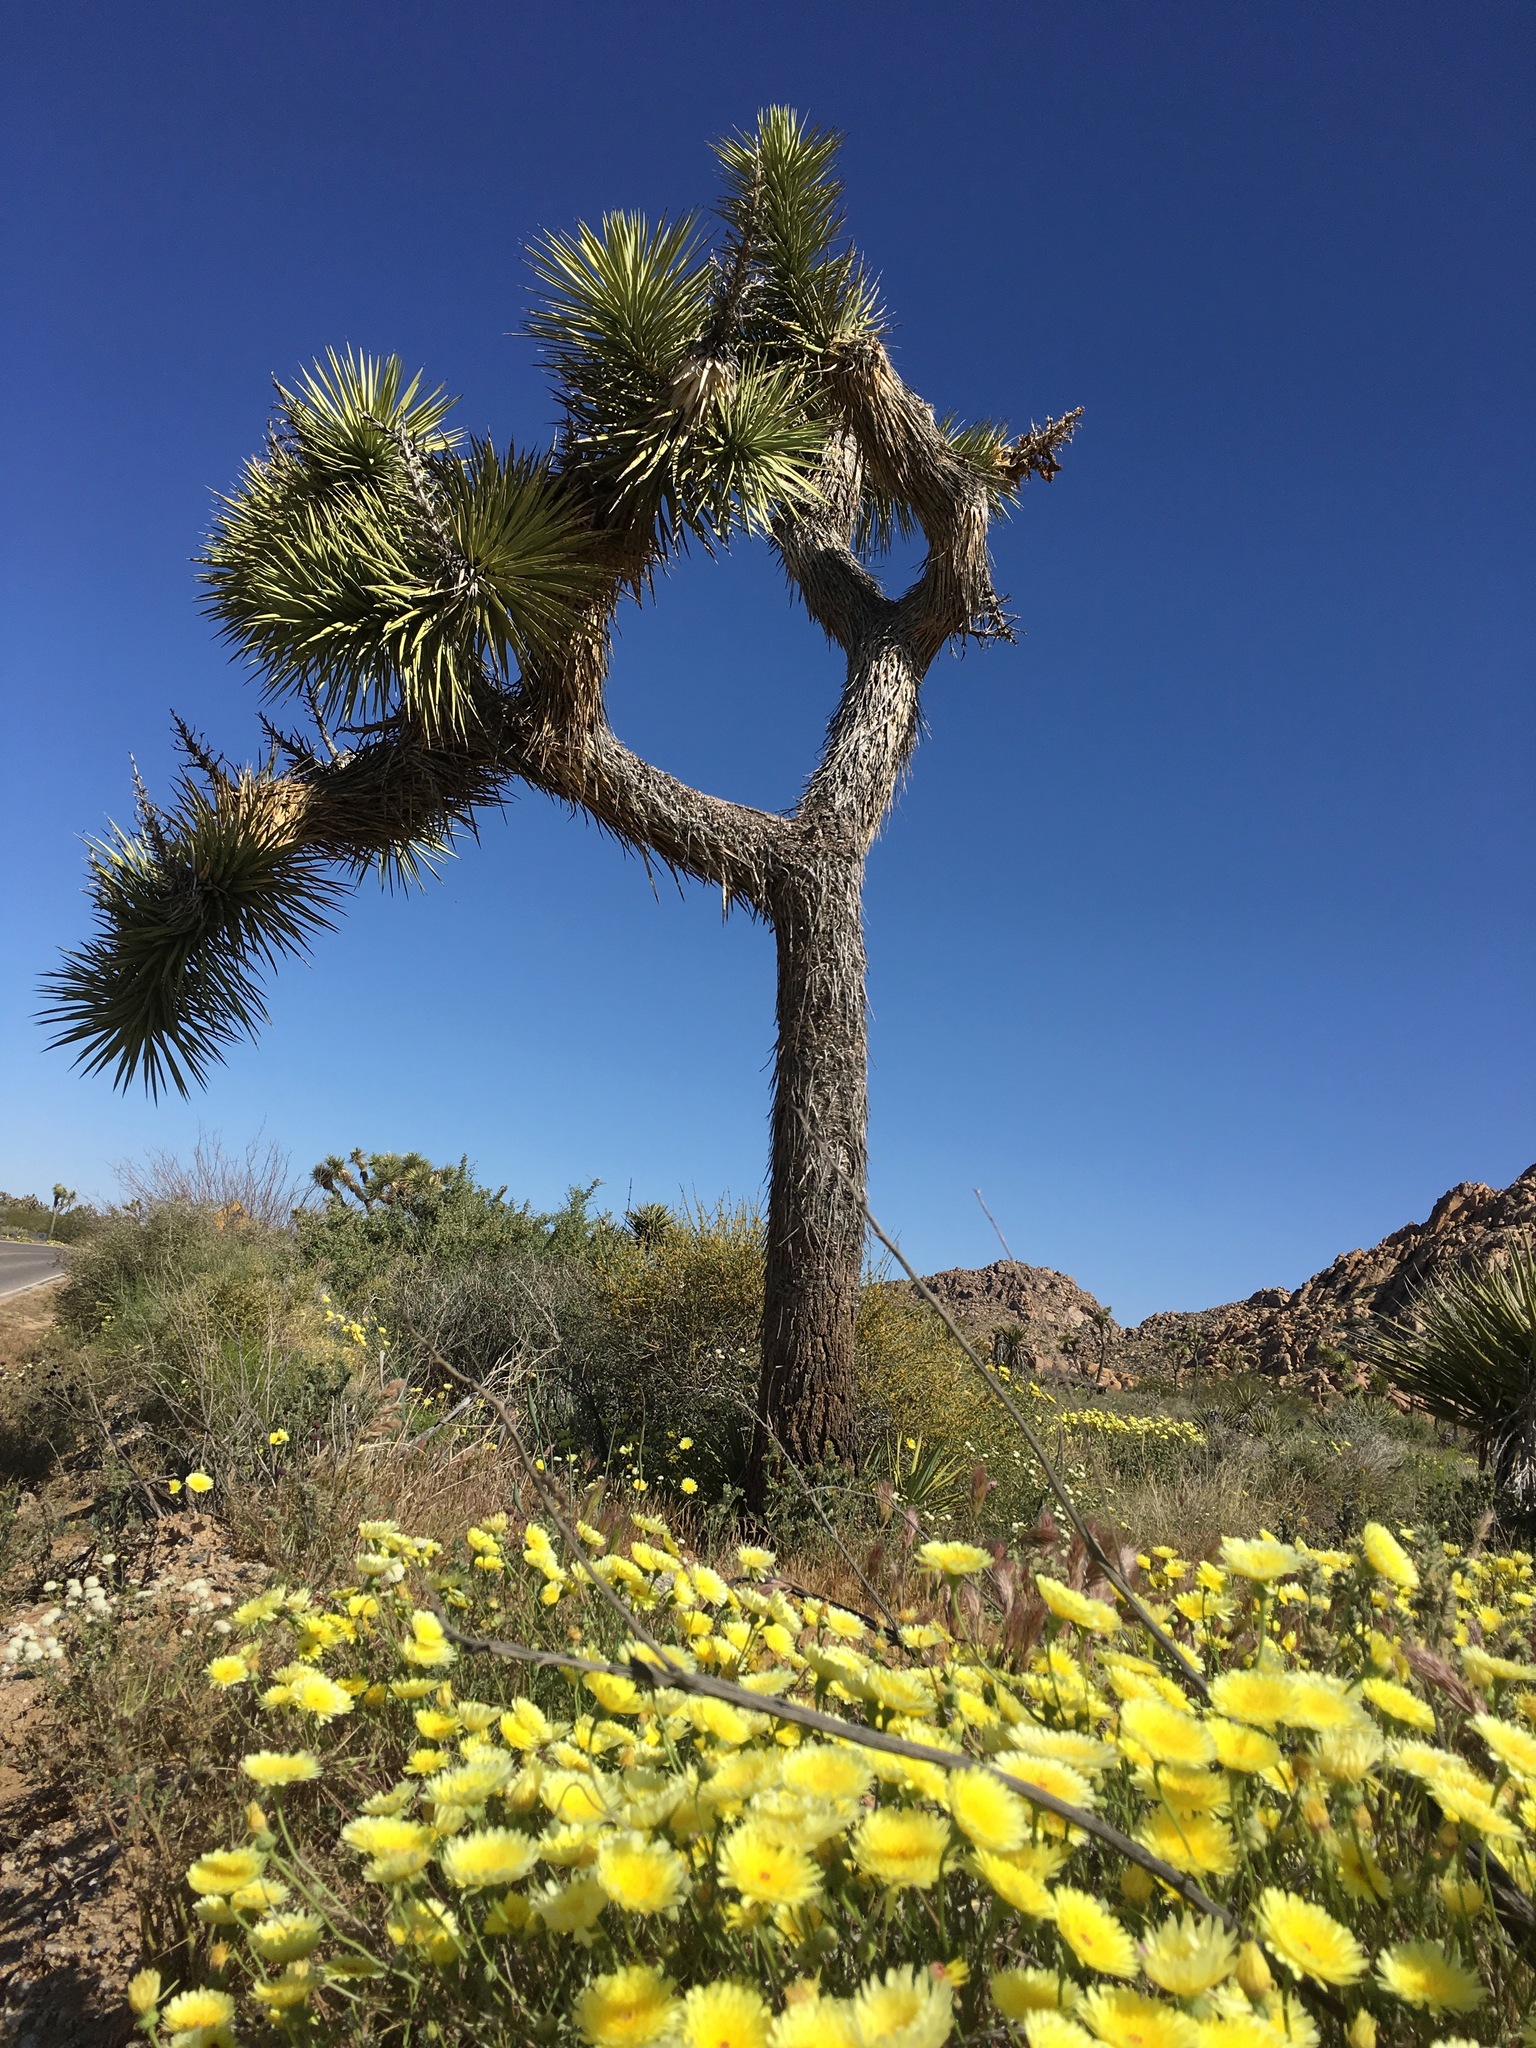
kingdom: Plantae
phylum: Tracheophyta
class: Liliopsida
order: Asparagales
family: Asparagaceae
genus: Yucca
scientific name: Yucca brevifolia
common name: Joshua tree
